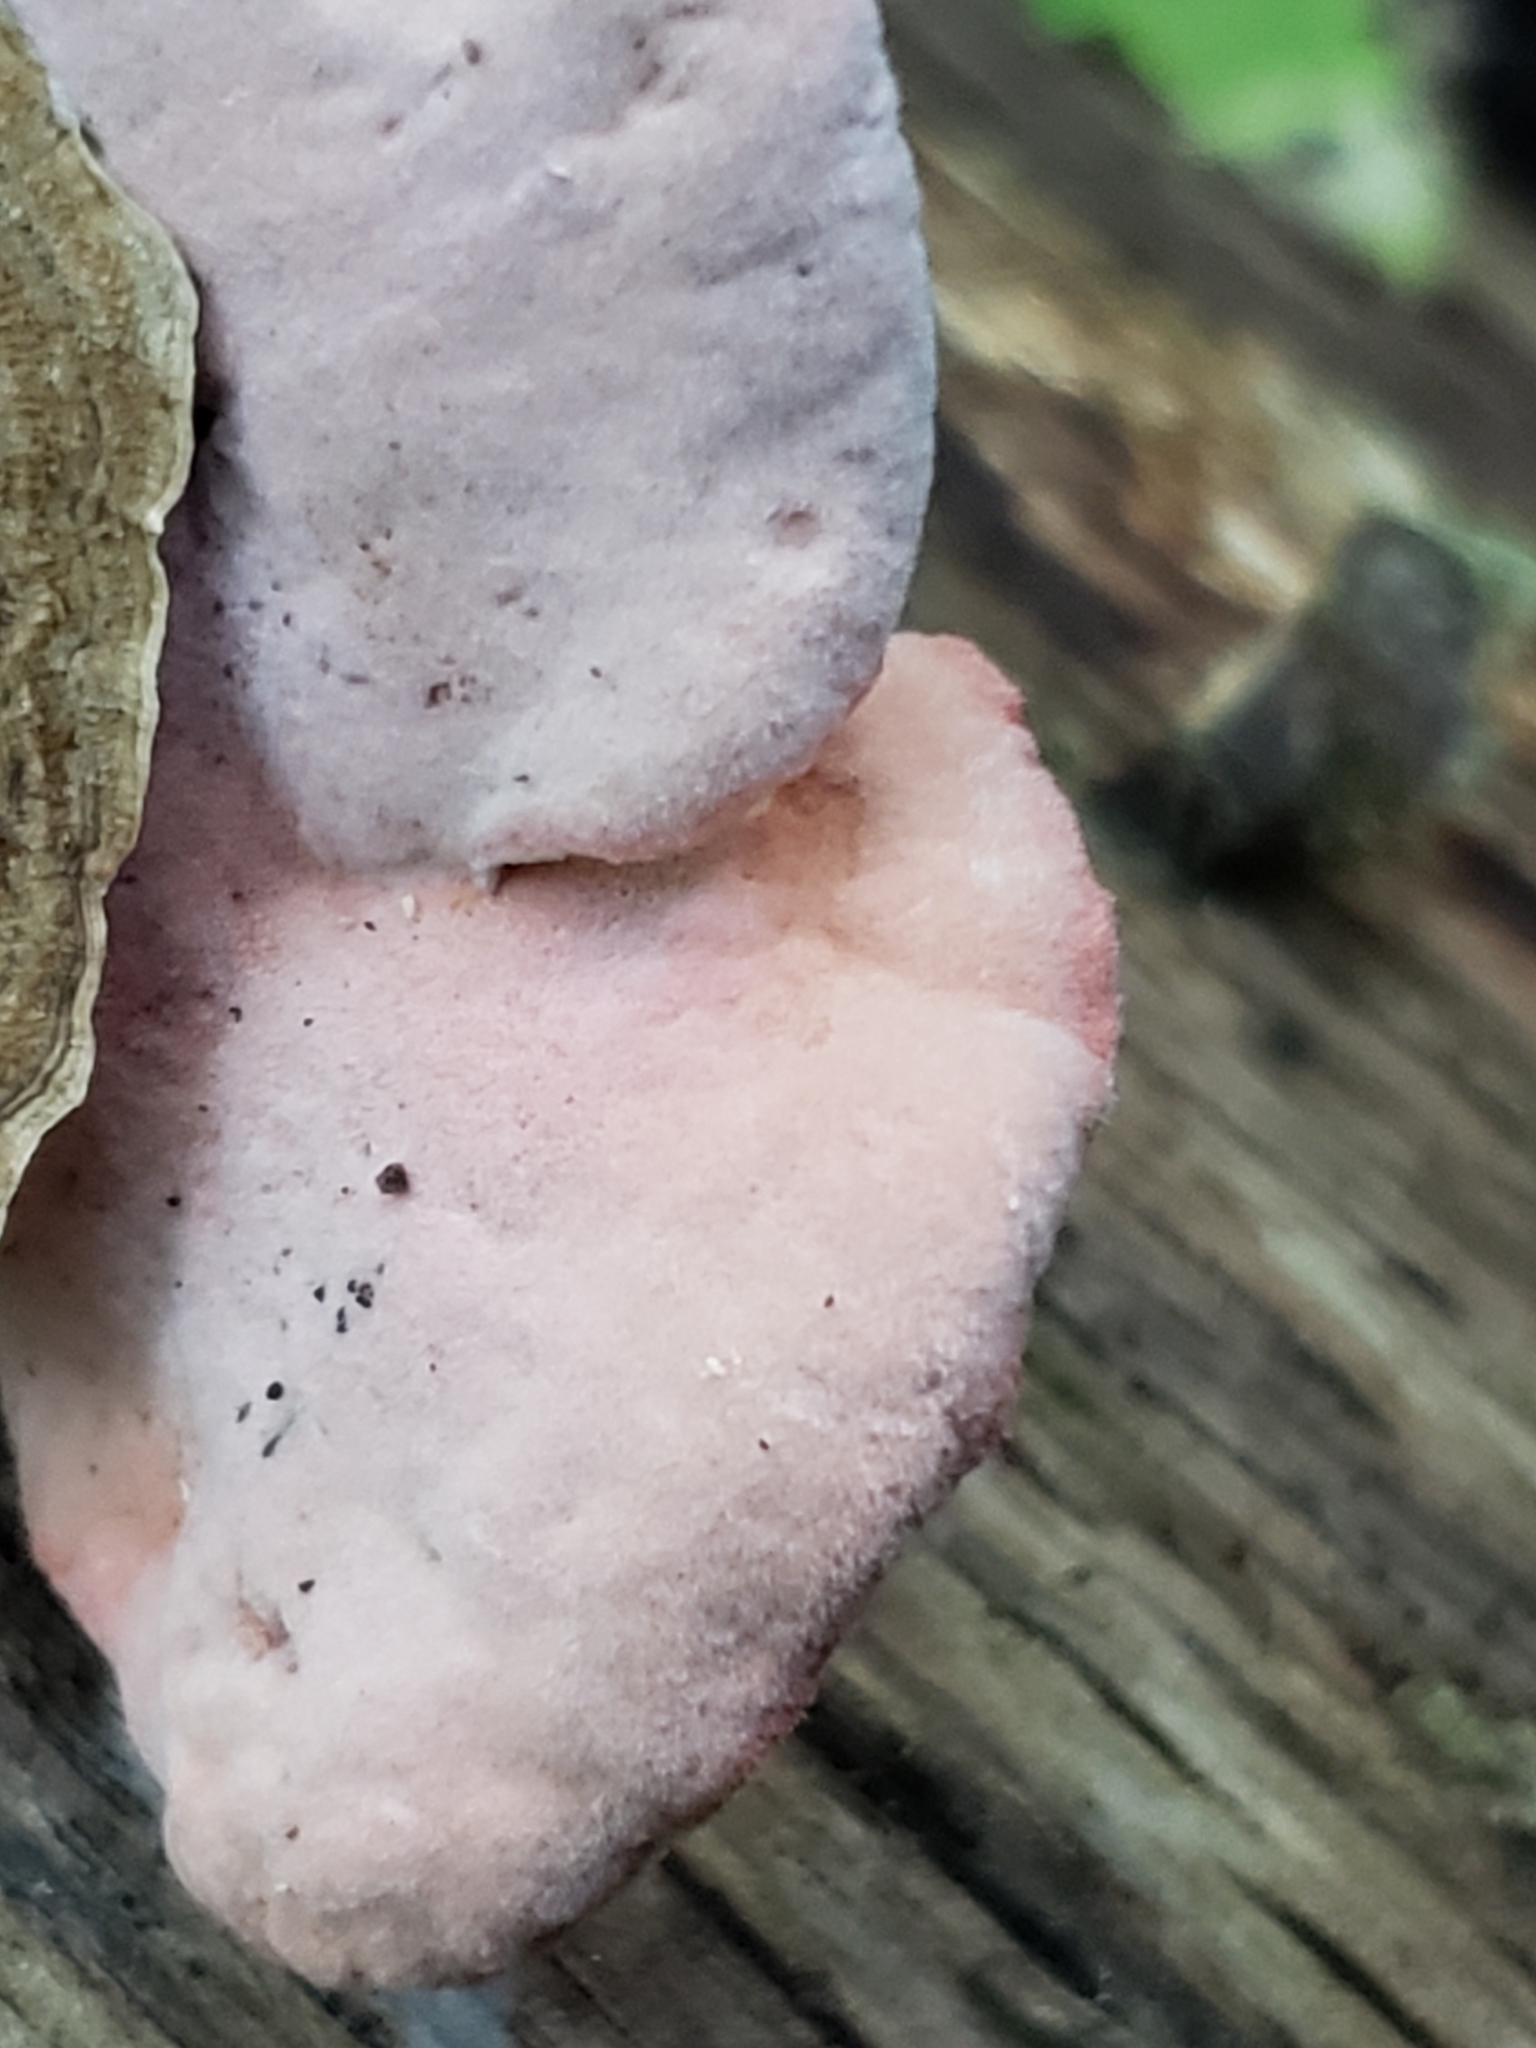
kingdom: Fungi
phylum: Basidiomycota
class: Agaricomycetes
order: Polyporales
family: Irpicaceae
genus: Byssomerulius
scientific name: Byssomerulius incarnatus
